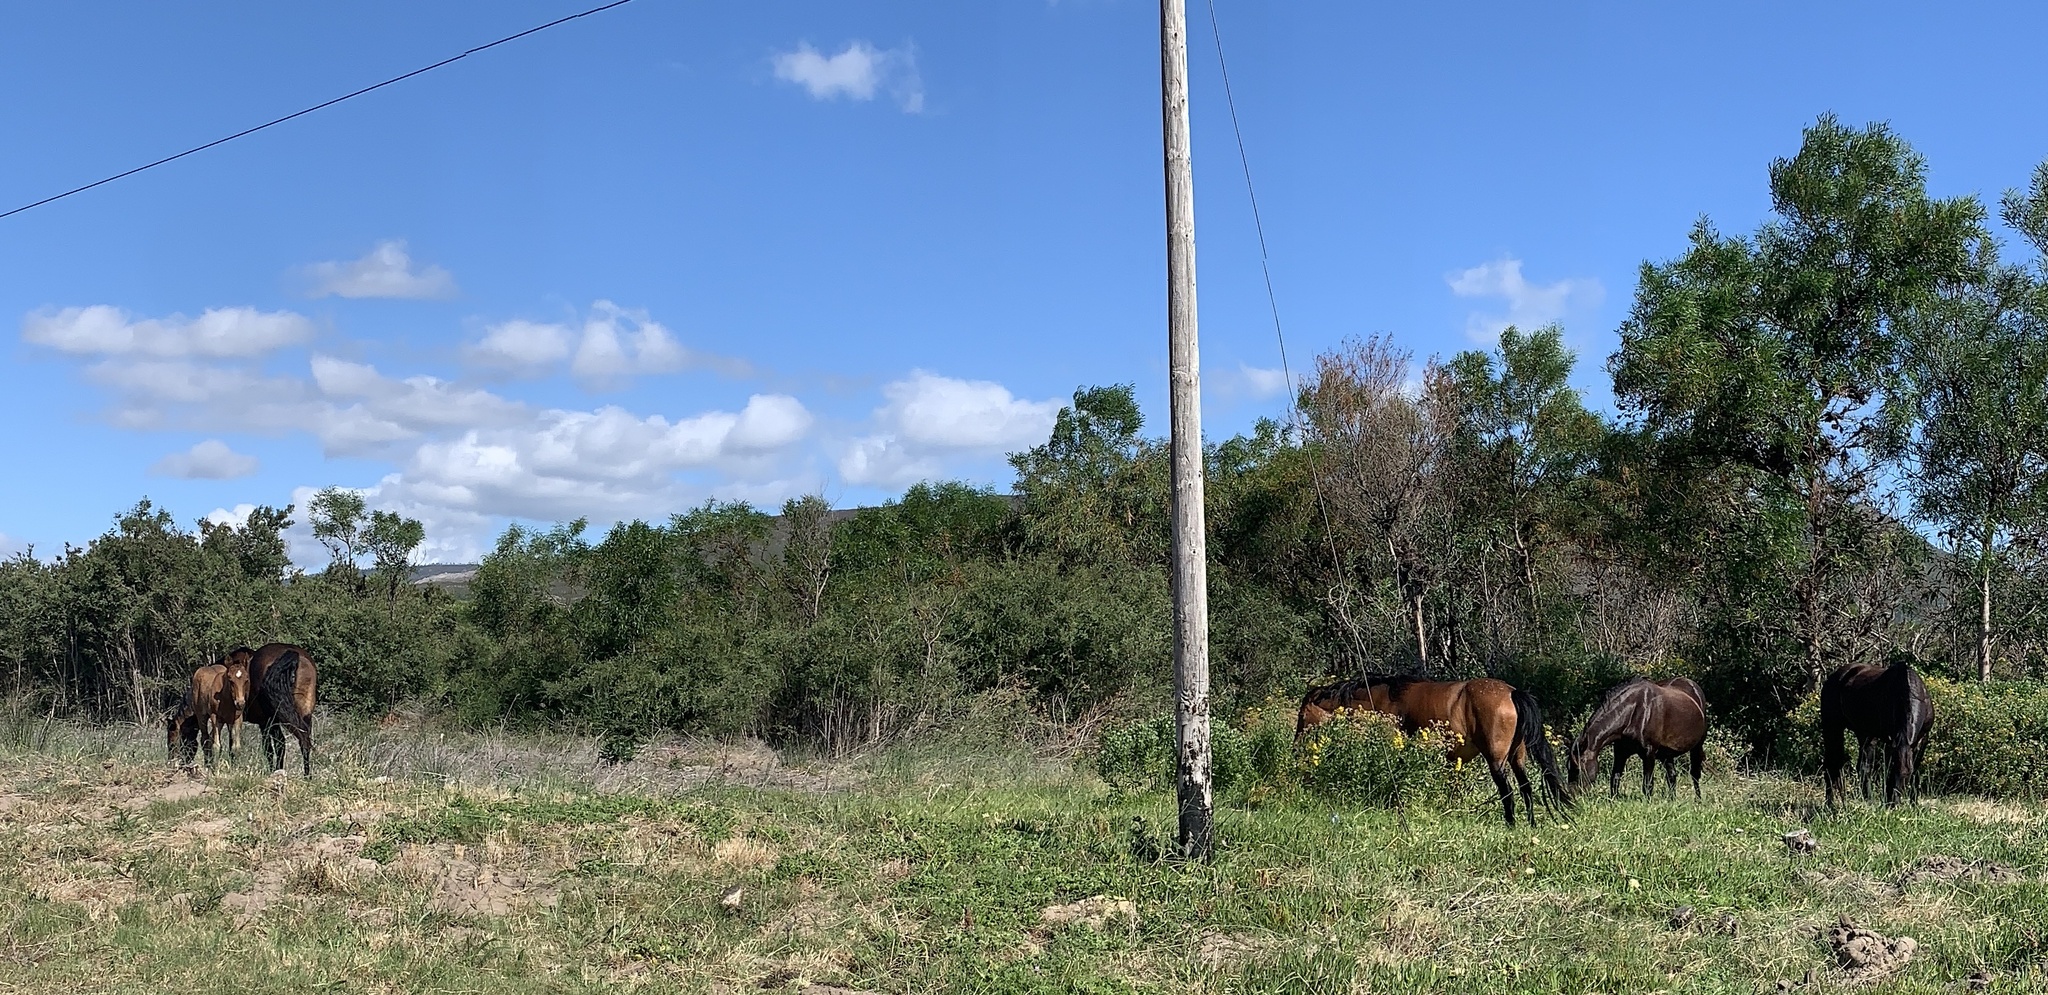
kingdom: Animalia
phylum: Chordata
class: Mammalia
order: Perissodactyla
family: Equidae
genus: Equus
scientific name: Equus caballus
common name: Horse
